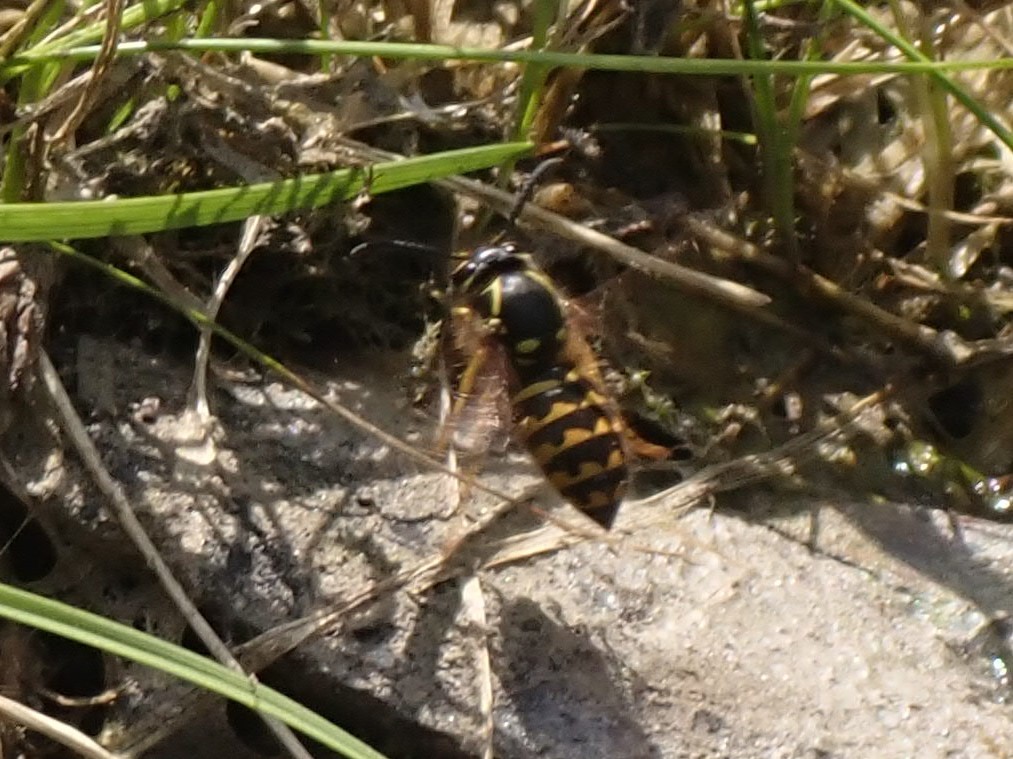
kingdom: Animalia
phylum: Arthropoda
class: Insecta
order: Hymenoptera
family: Vespidae
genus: Dolichovespula
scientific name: Dolichovespula arenaria
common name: Aerial yellowjacket
